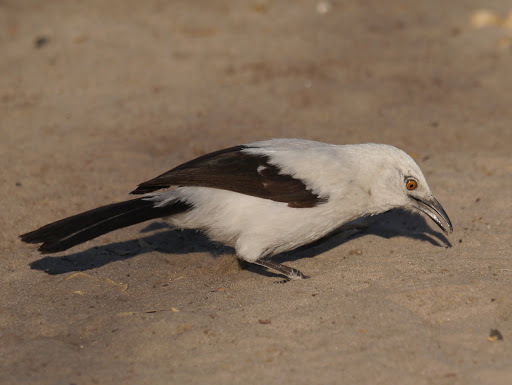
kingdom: Animalia
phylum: Chordata
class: Aves
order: Passeriformes
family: Leiothrichidae
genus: Turdoides
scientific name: Turdoides bicolor
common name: Southern pied babbler
